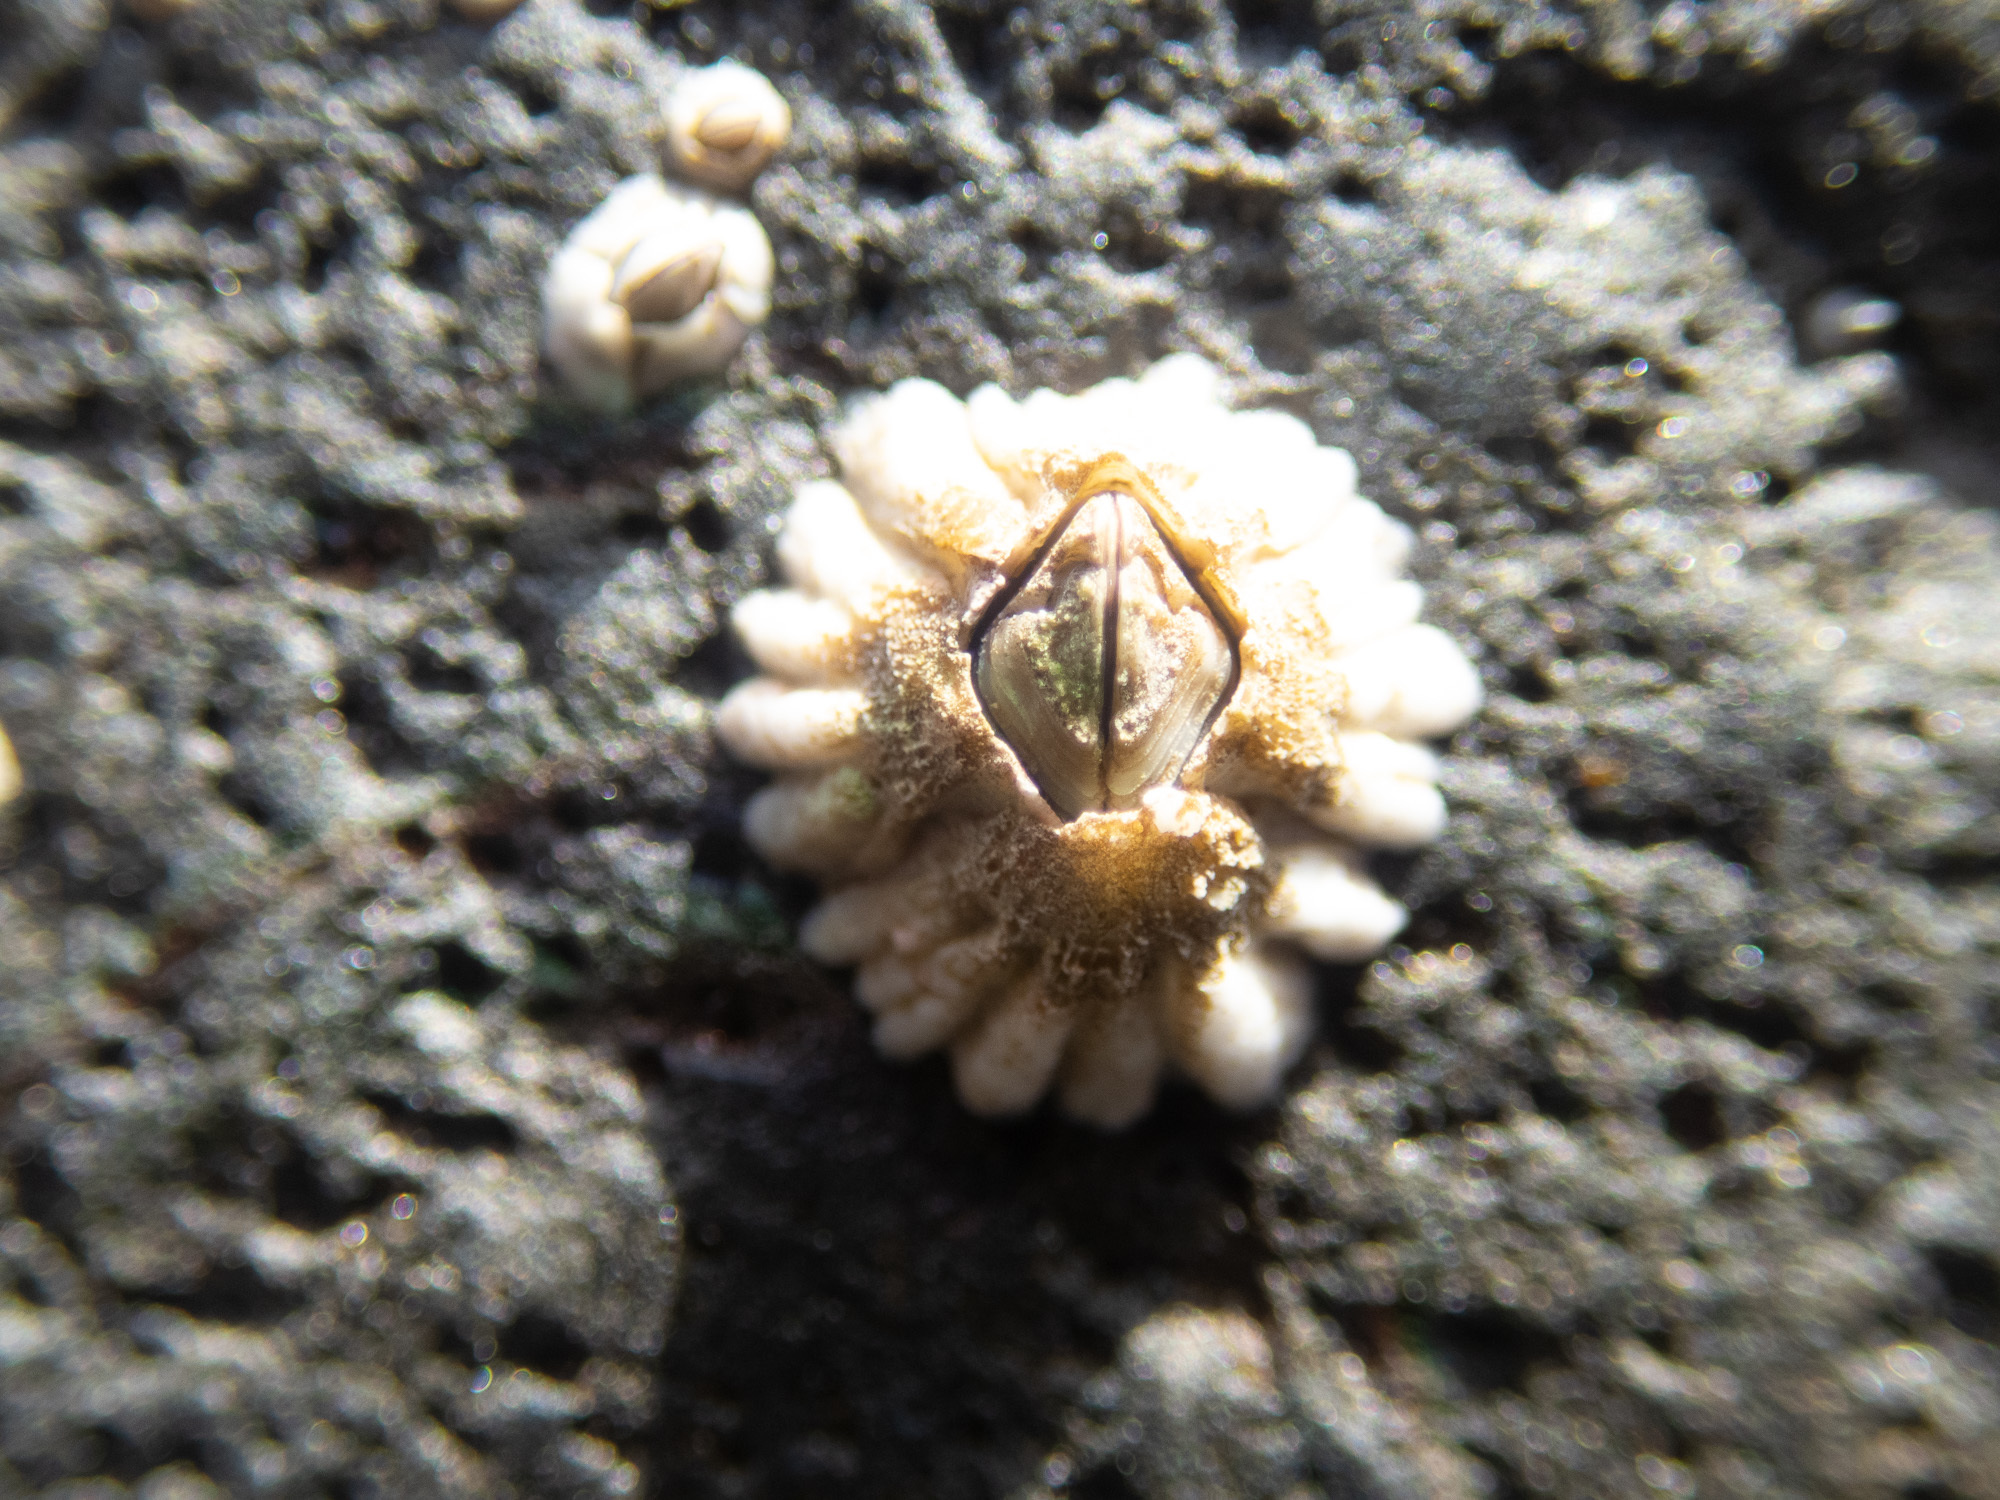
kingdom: Animalia
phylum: Arthropoda
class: Maxillopoda
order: Sessilia
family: Archaeobalanidae
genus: Semibalanus
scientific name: Semibalanus balanoides
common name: Acorn barnacle
